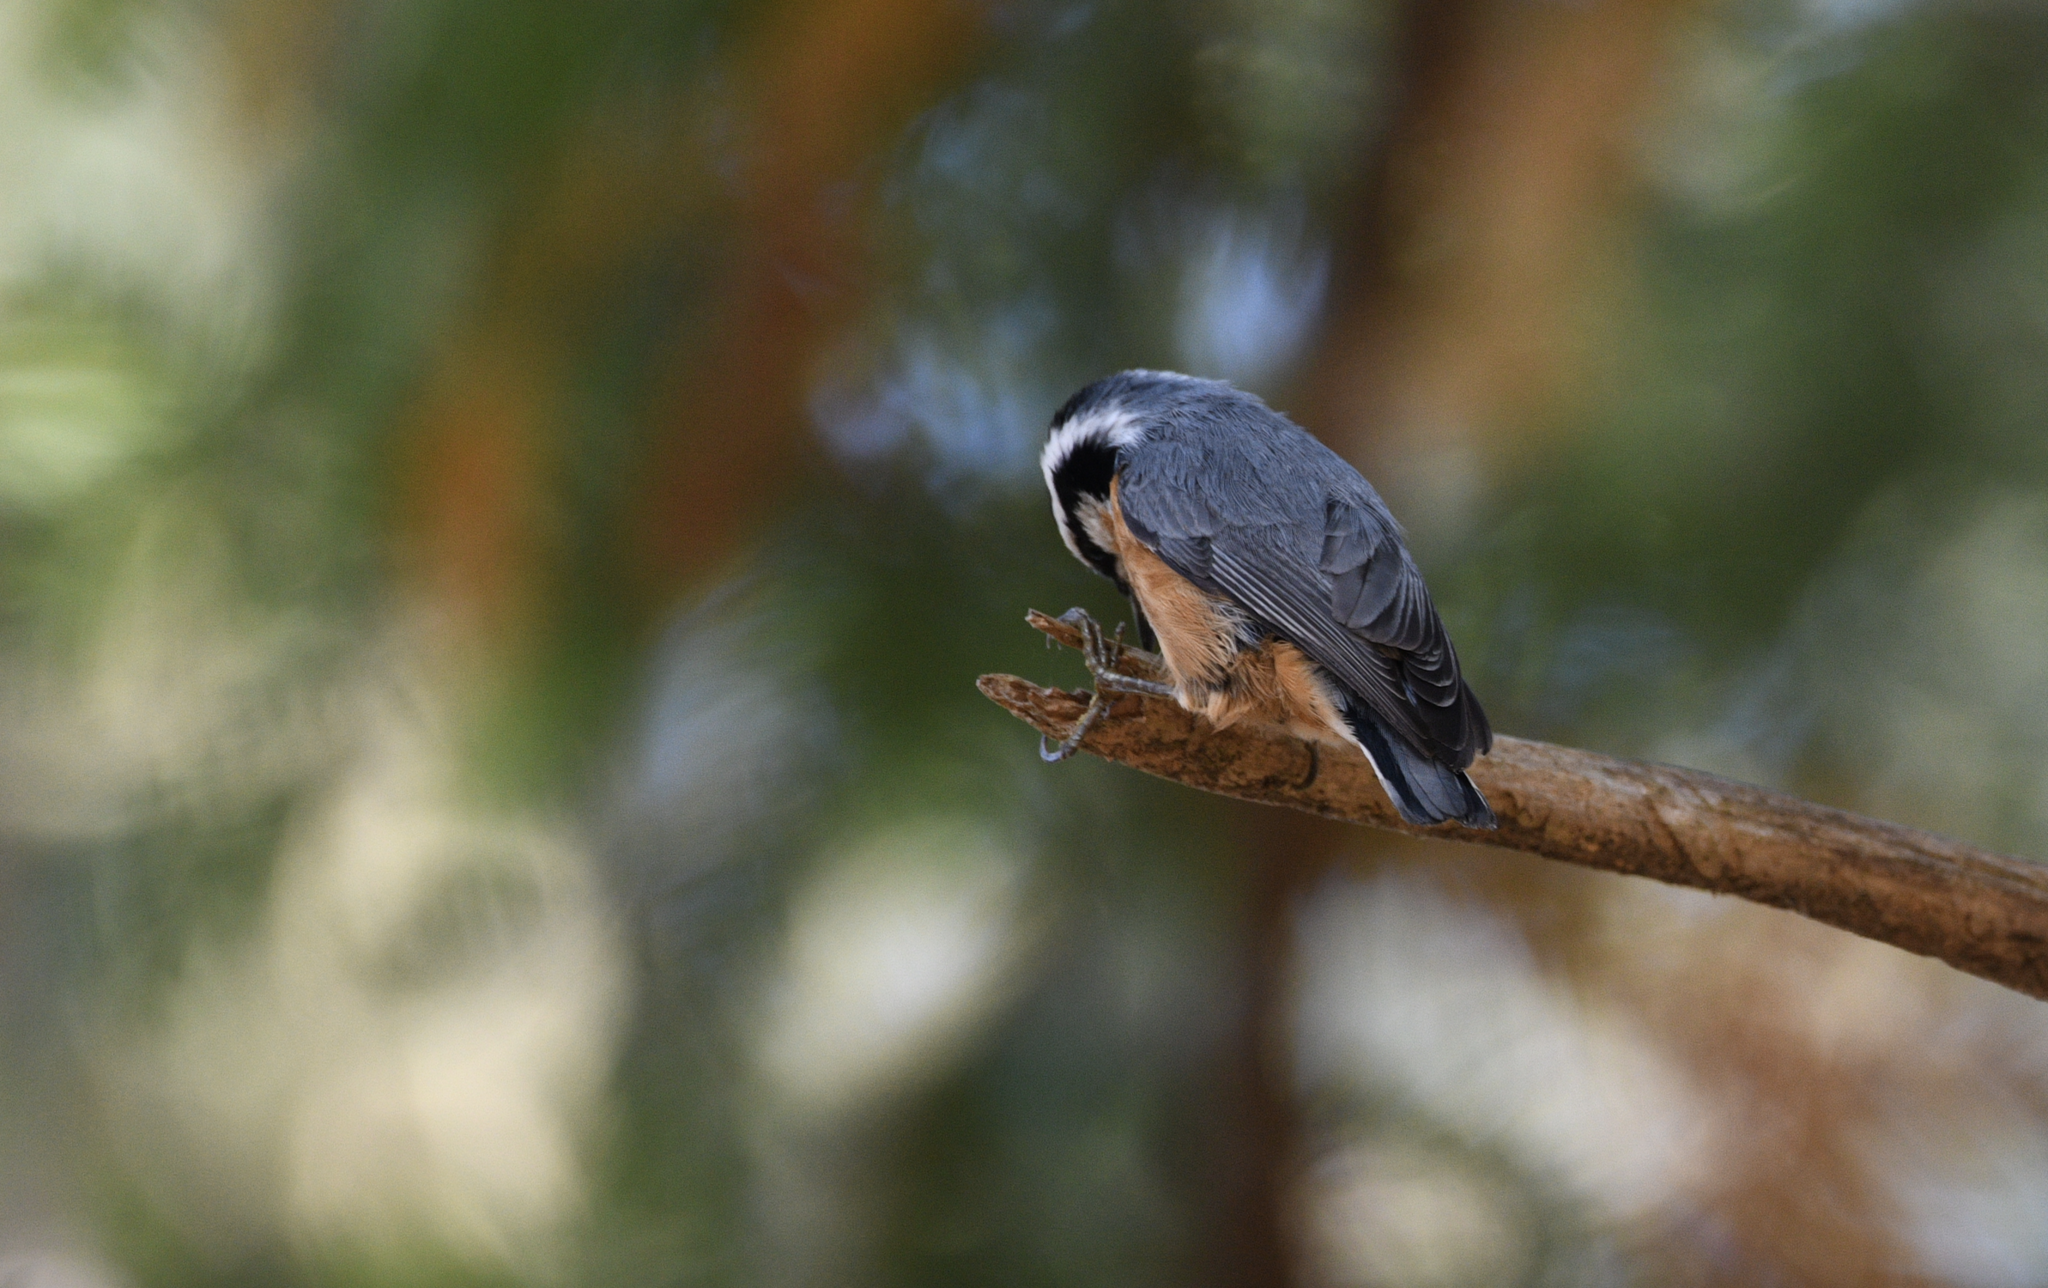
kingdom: Animalia
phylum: Chordata
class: Aves
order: Passeriformes
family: Sittidae
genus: Sitta
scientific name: Sitta canadensis
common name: Red-breasted nuthatch
